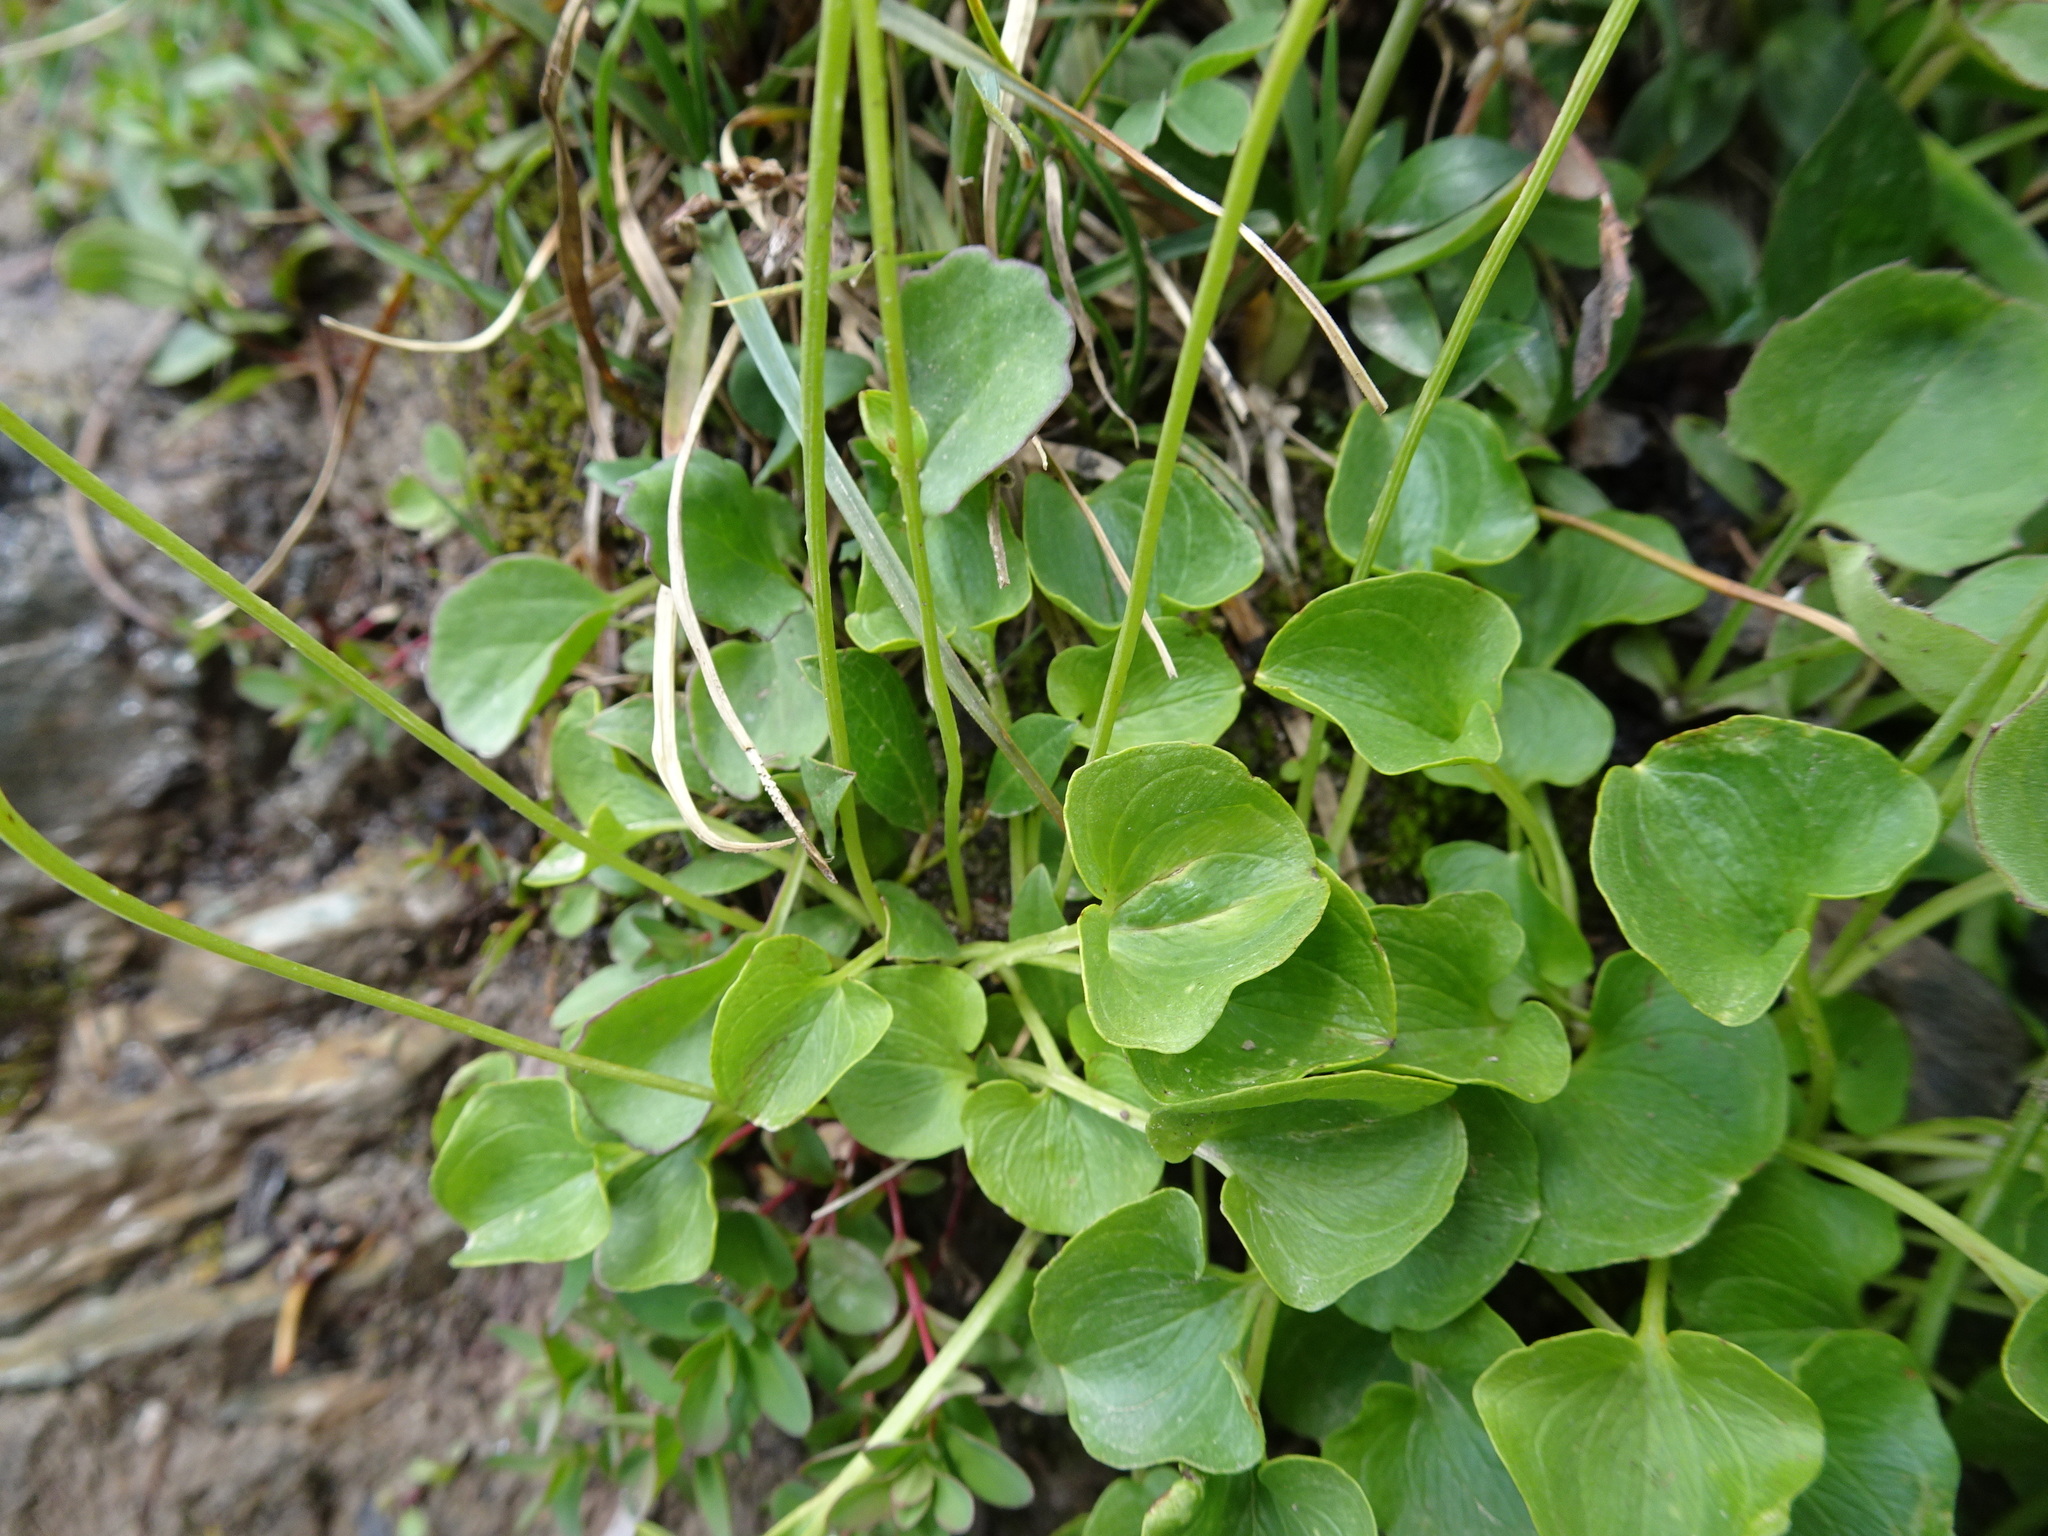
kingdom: Plantae
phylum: Tracheophyta
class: Magnoliopsida
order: Celastrales
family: Parnassiaceae
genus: Parnassia
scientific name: Parnassia fimbriata
